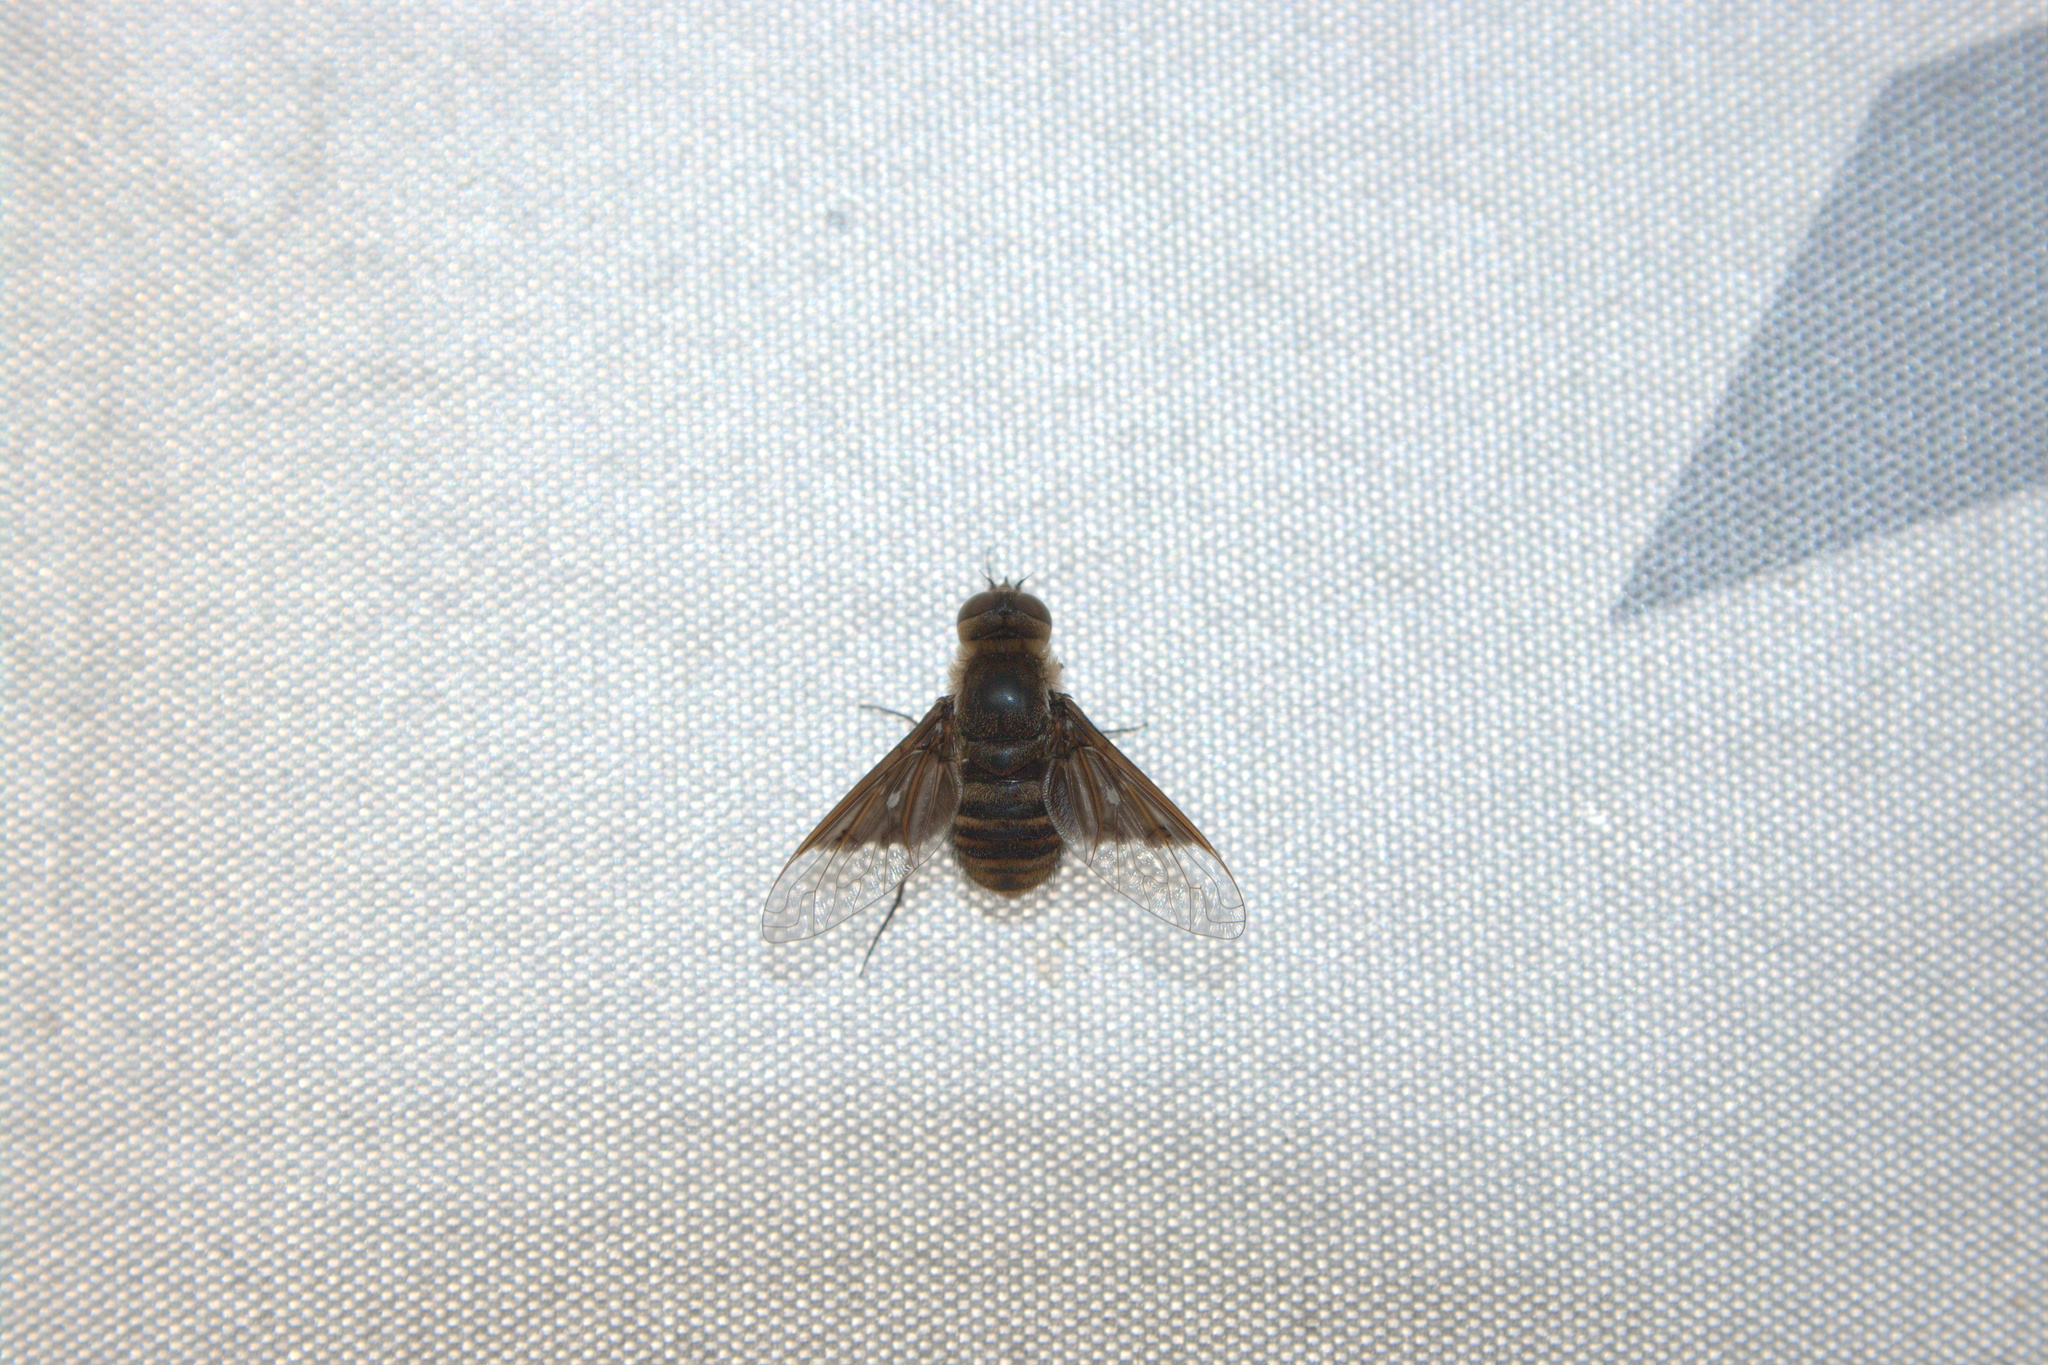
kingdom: Animalia
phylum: Arthropoda
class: Insecta
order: Diptera
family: Bombyliidae
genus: Paravilla
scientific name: Paravilla separata
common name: Paravilla separata
